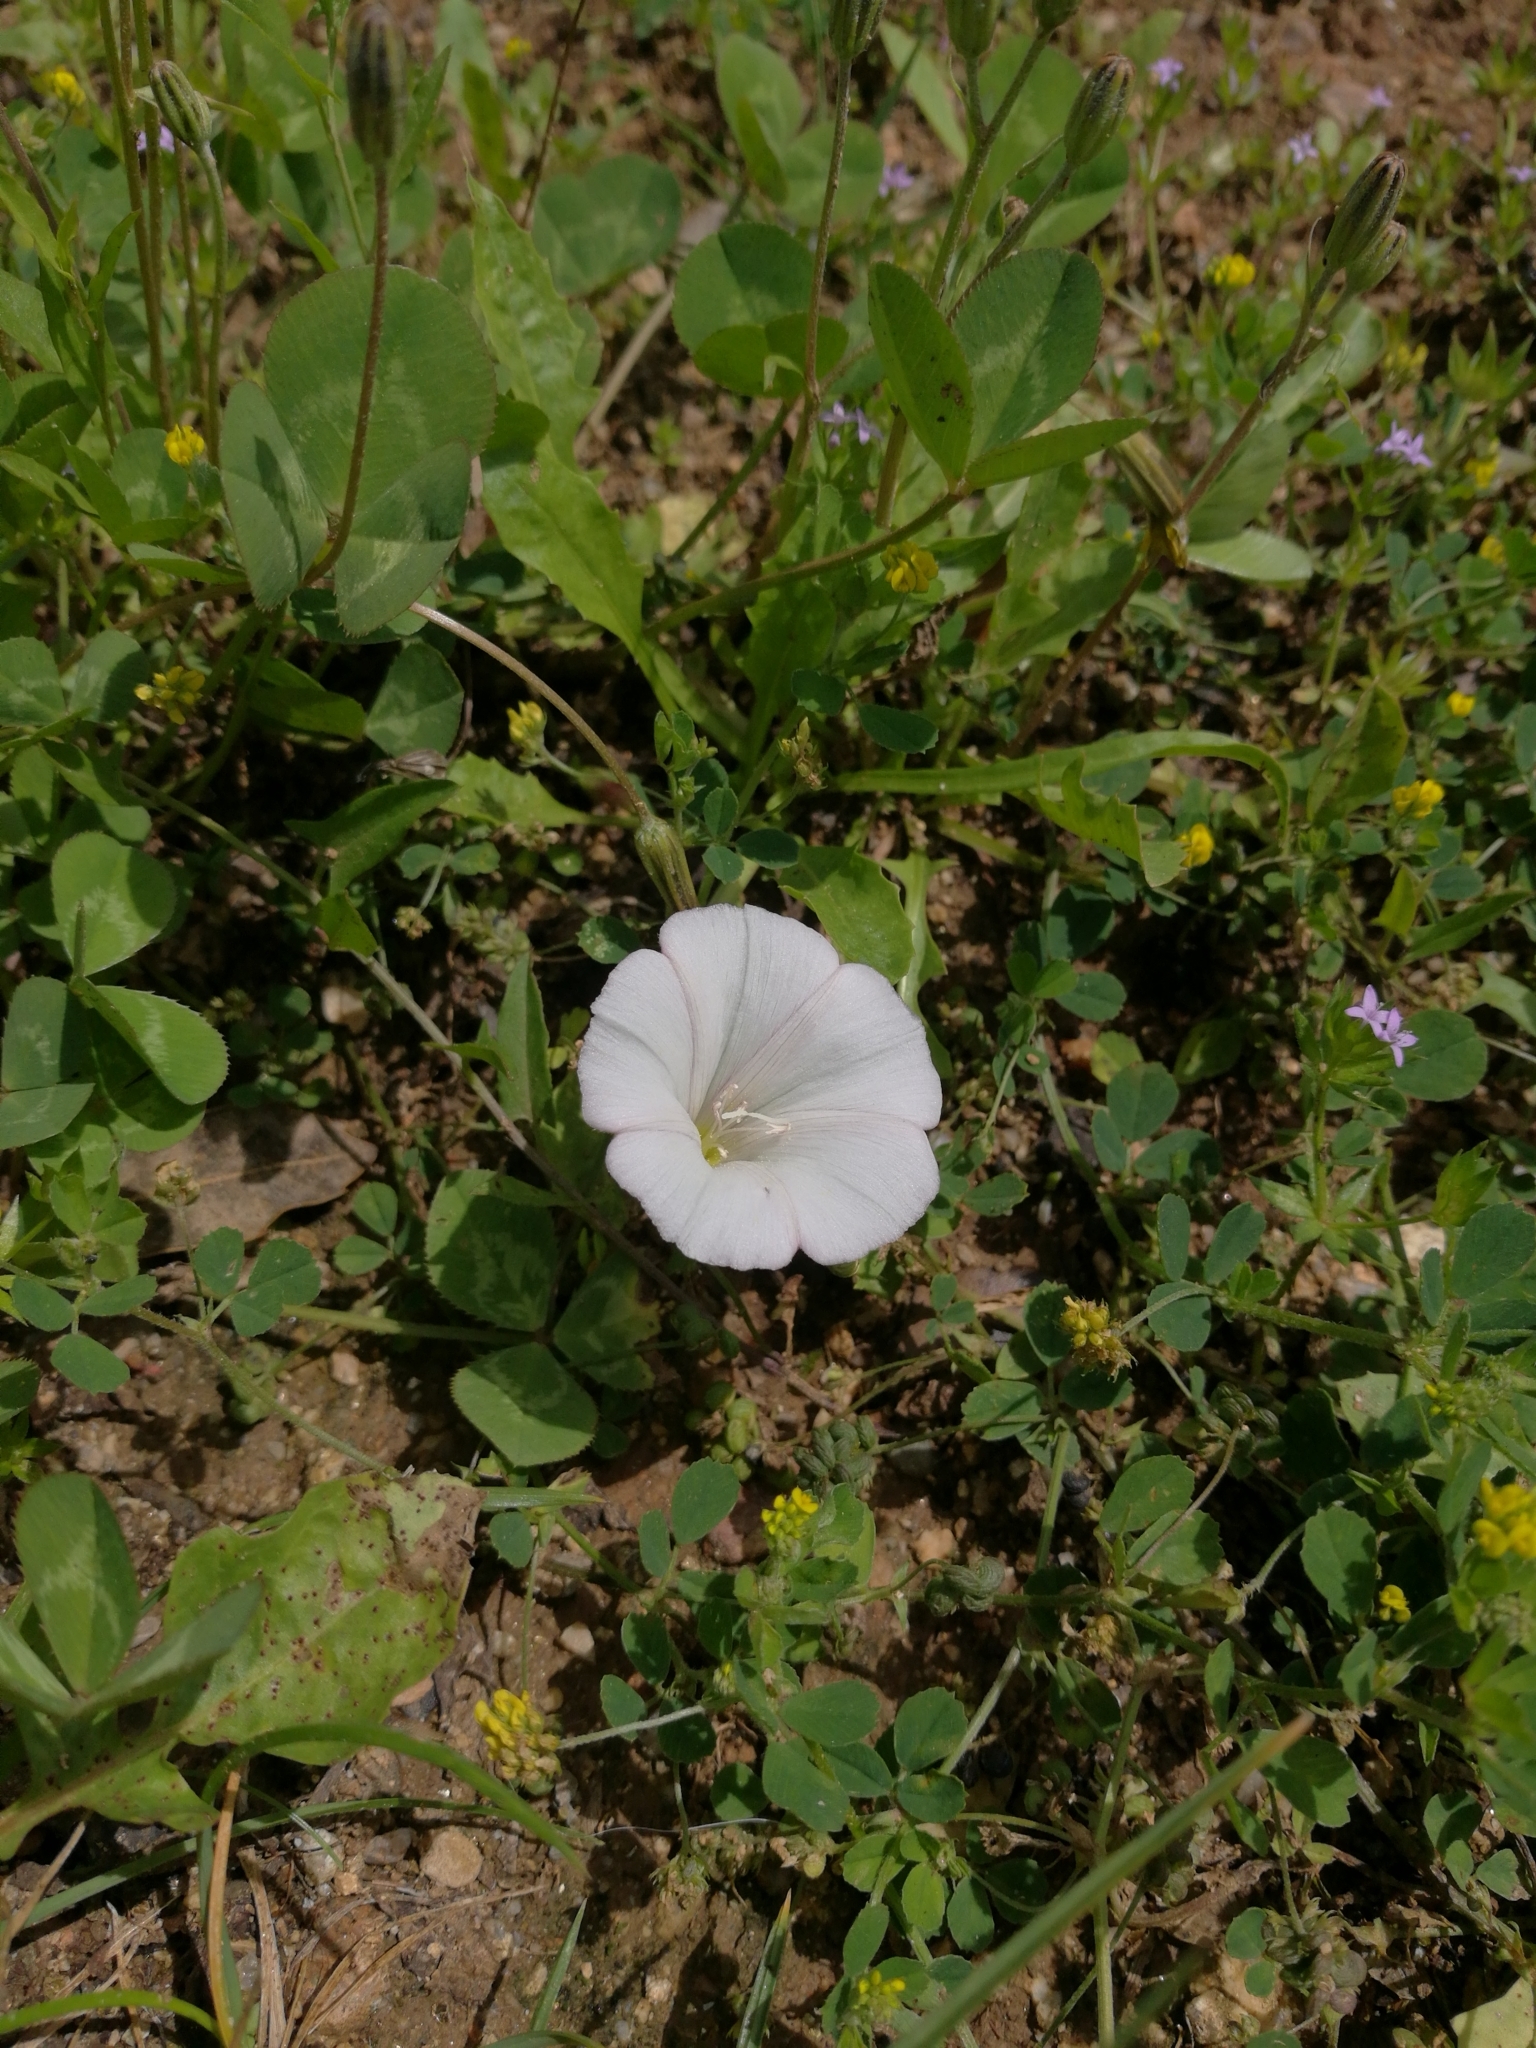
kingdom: Plantae
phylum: Tracheophyta
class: Magnoliopsida
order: Solanales
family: Convolvulaceae
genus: Convolvulus
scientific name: Convolvulus arvensis
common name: Field bindweed
